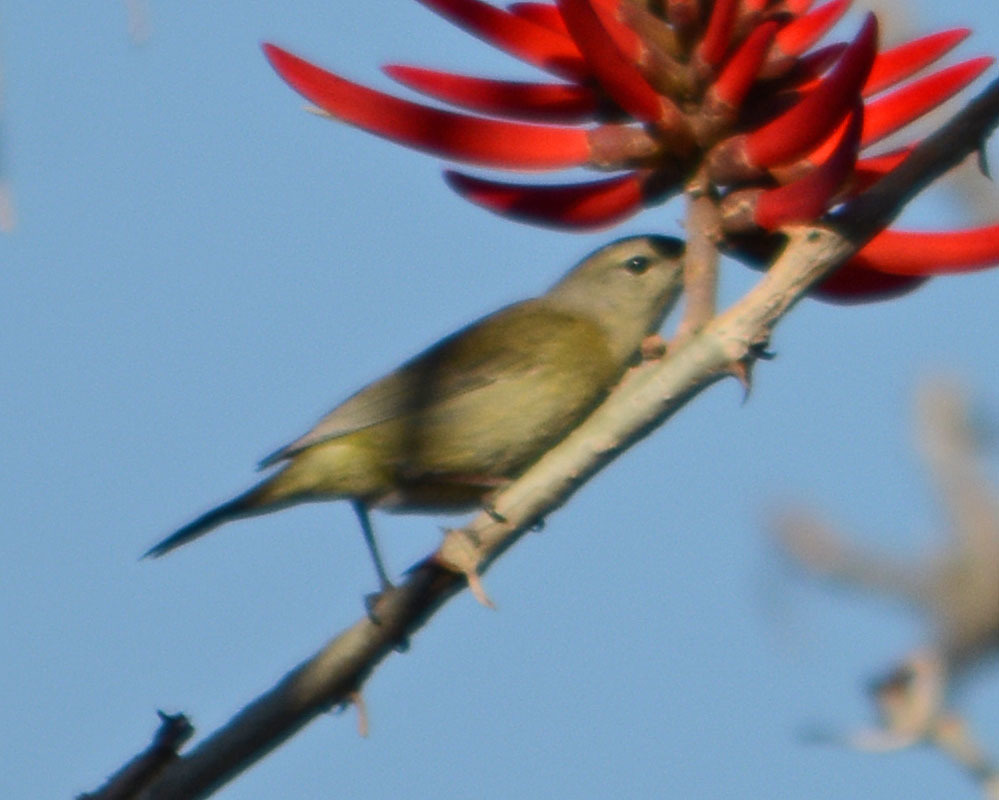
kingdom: Animalia
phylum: Chordata
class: Aves
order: Passeriformes
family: Parulidae
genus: Leiothlypis
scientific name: Leiothlypis celata
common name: Orange-crowned warbler
